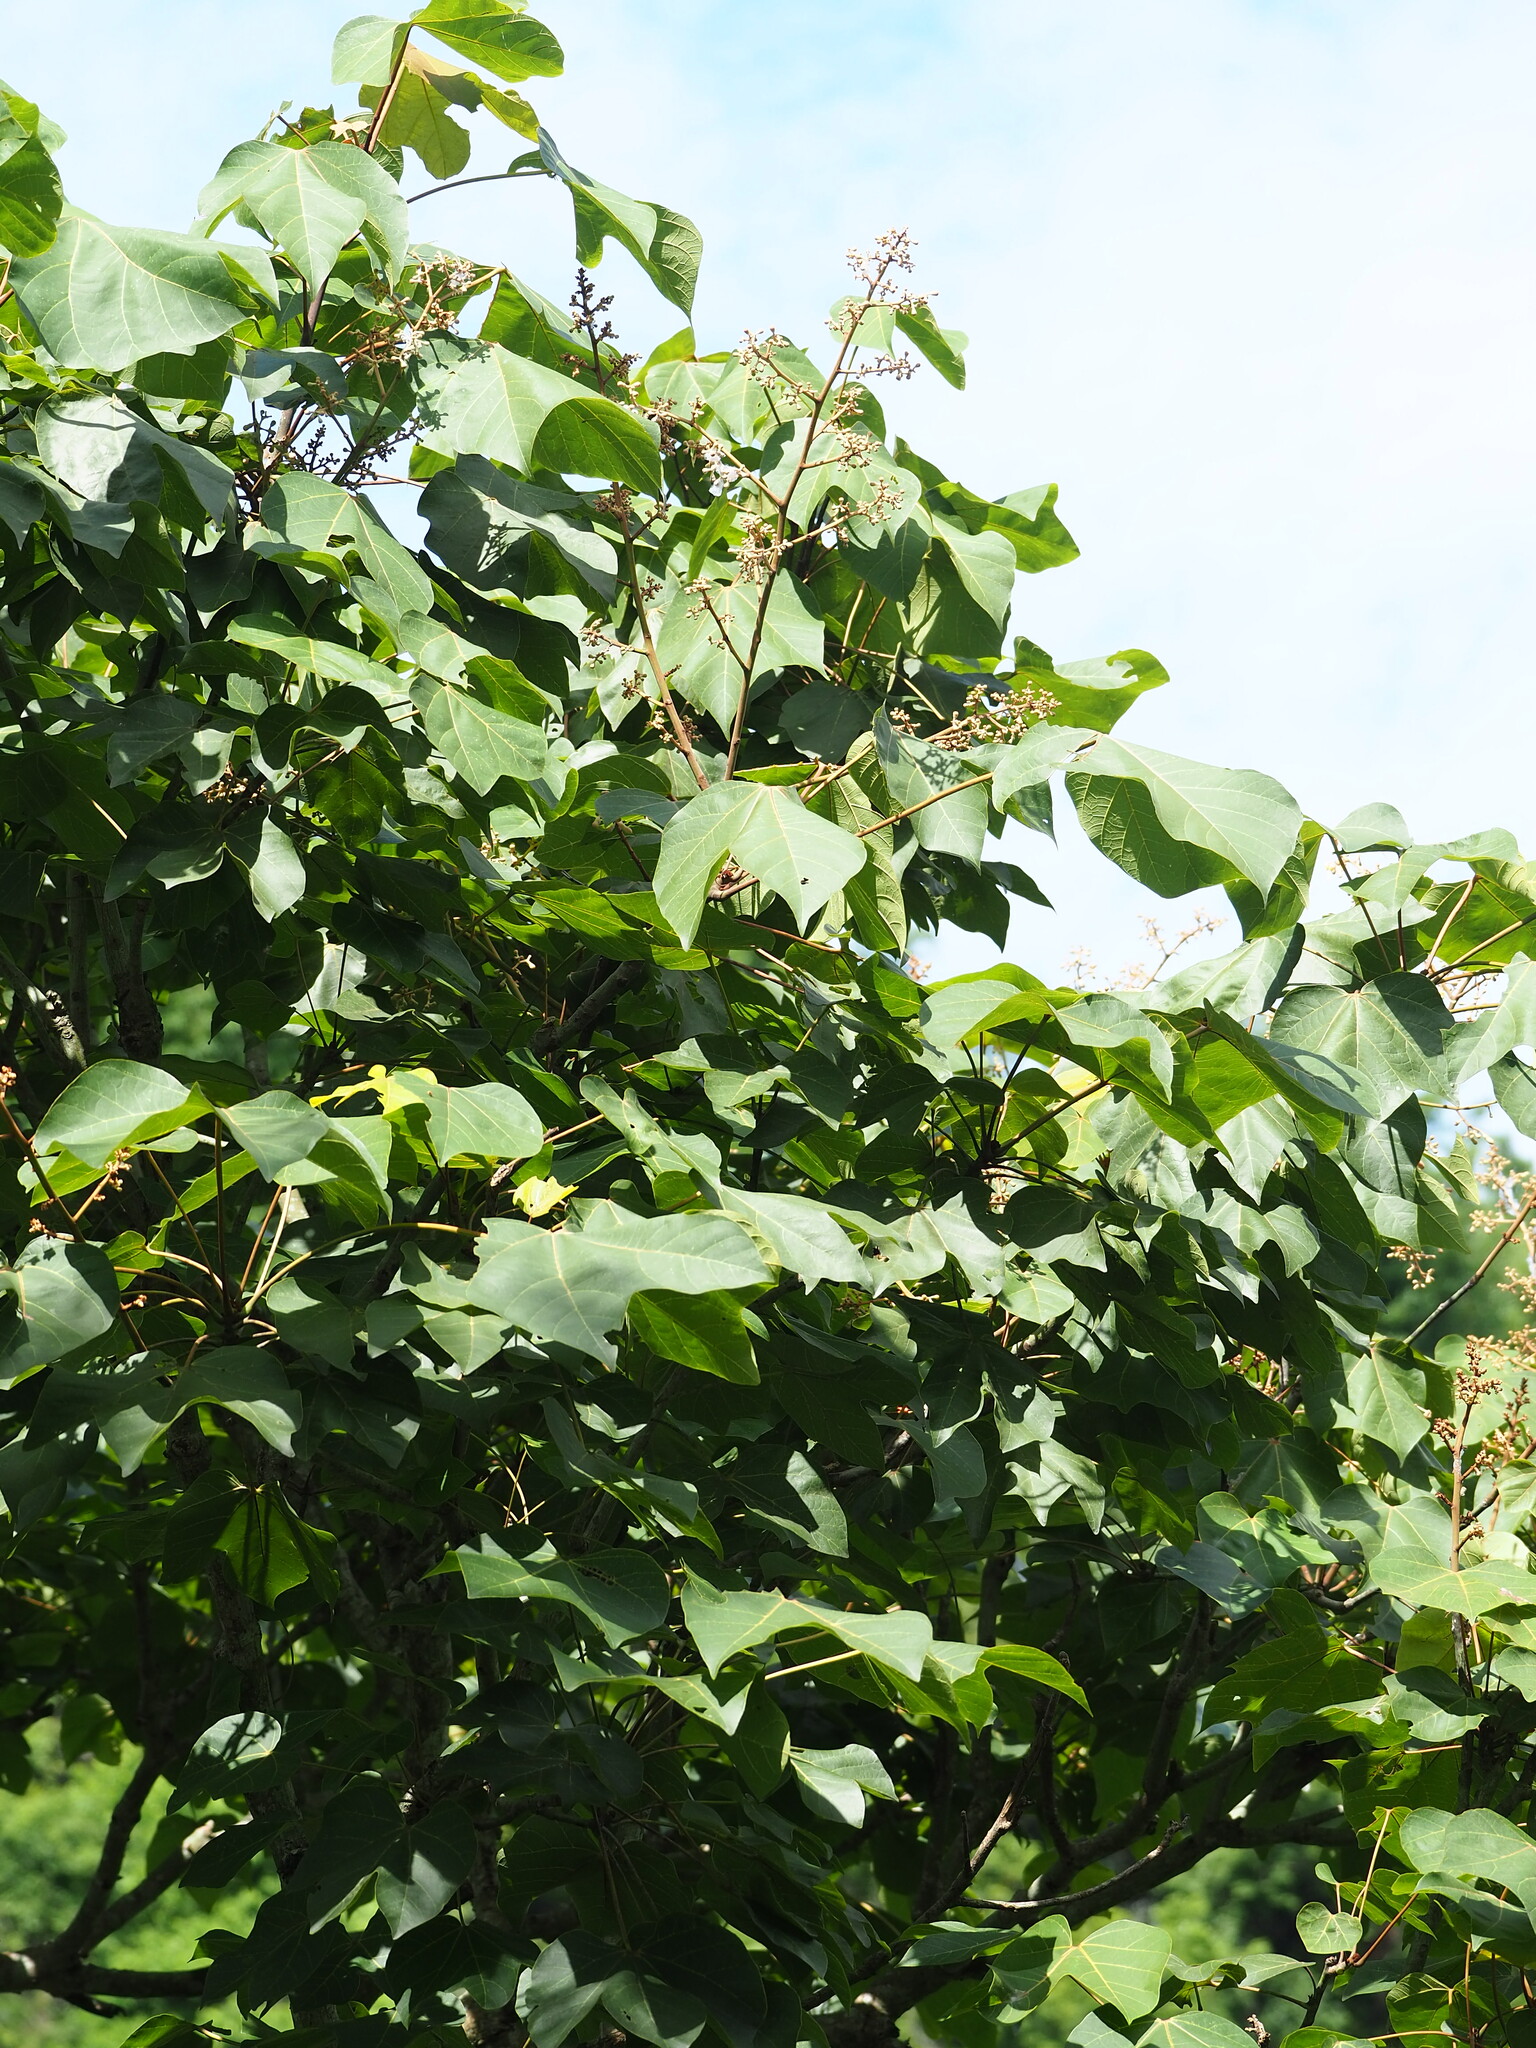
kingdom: Plantae
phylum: Tracheophyta
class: Magnoliopsida
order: Malvales
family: Malvaceae
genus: Firmiana
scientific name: Firmiana simplex
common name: Chinese parasoltree
